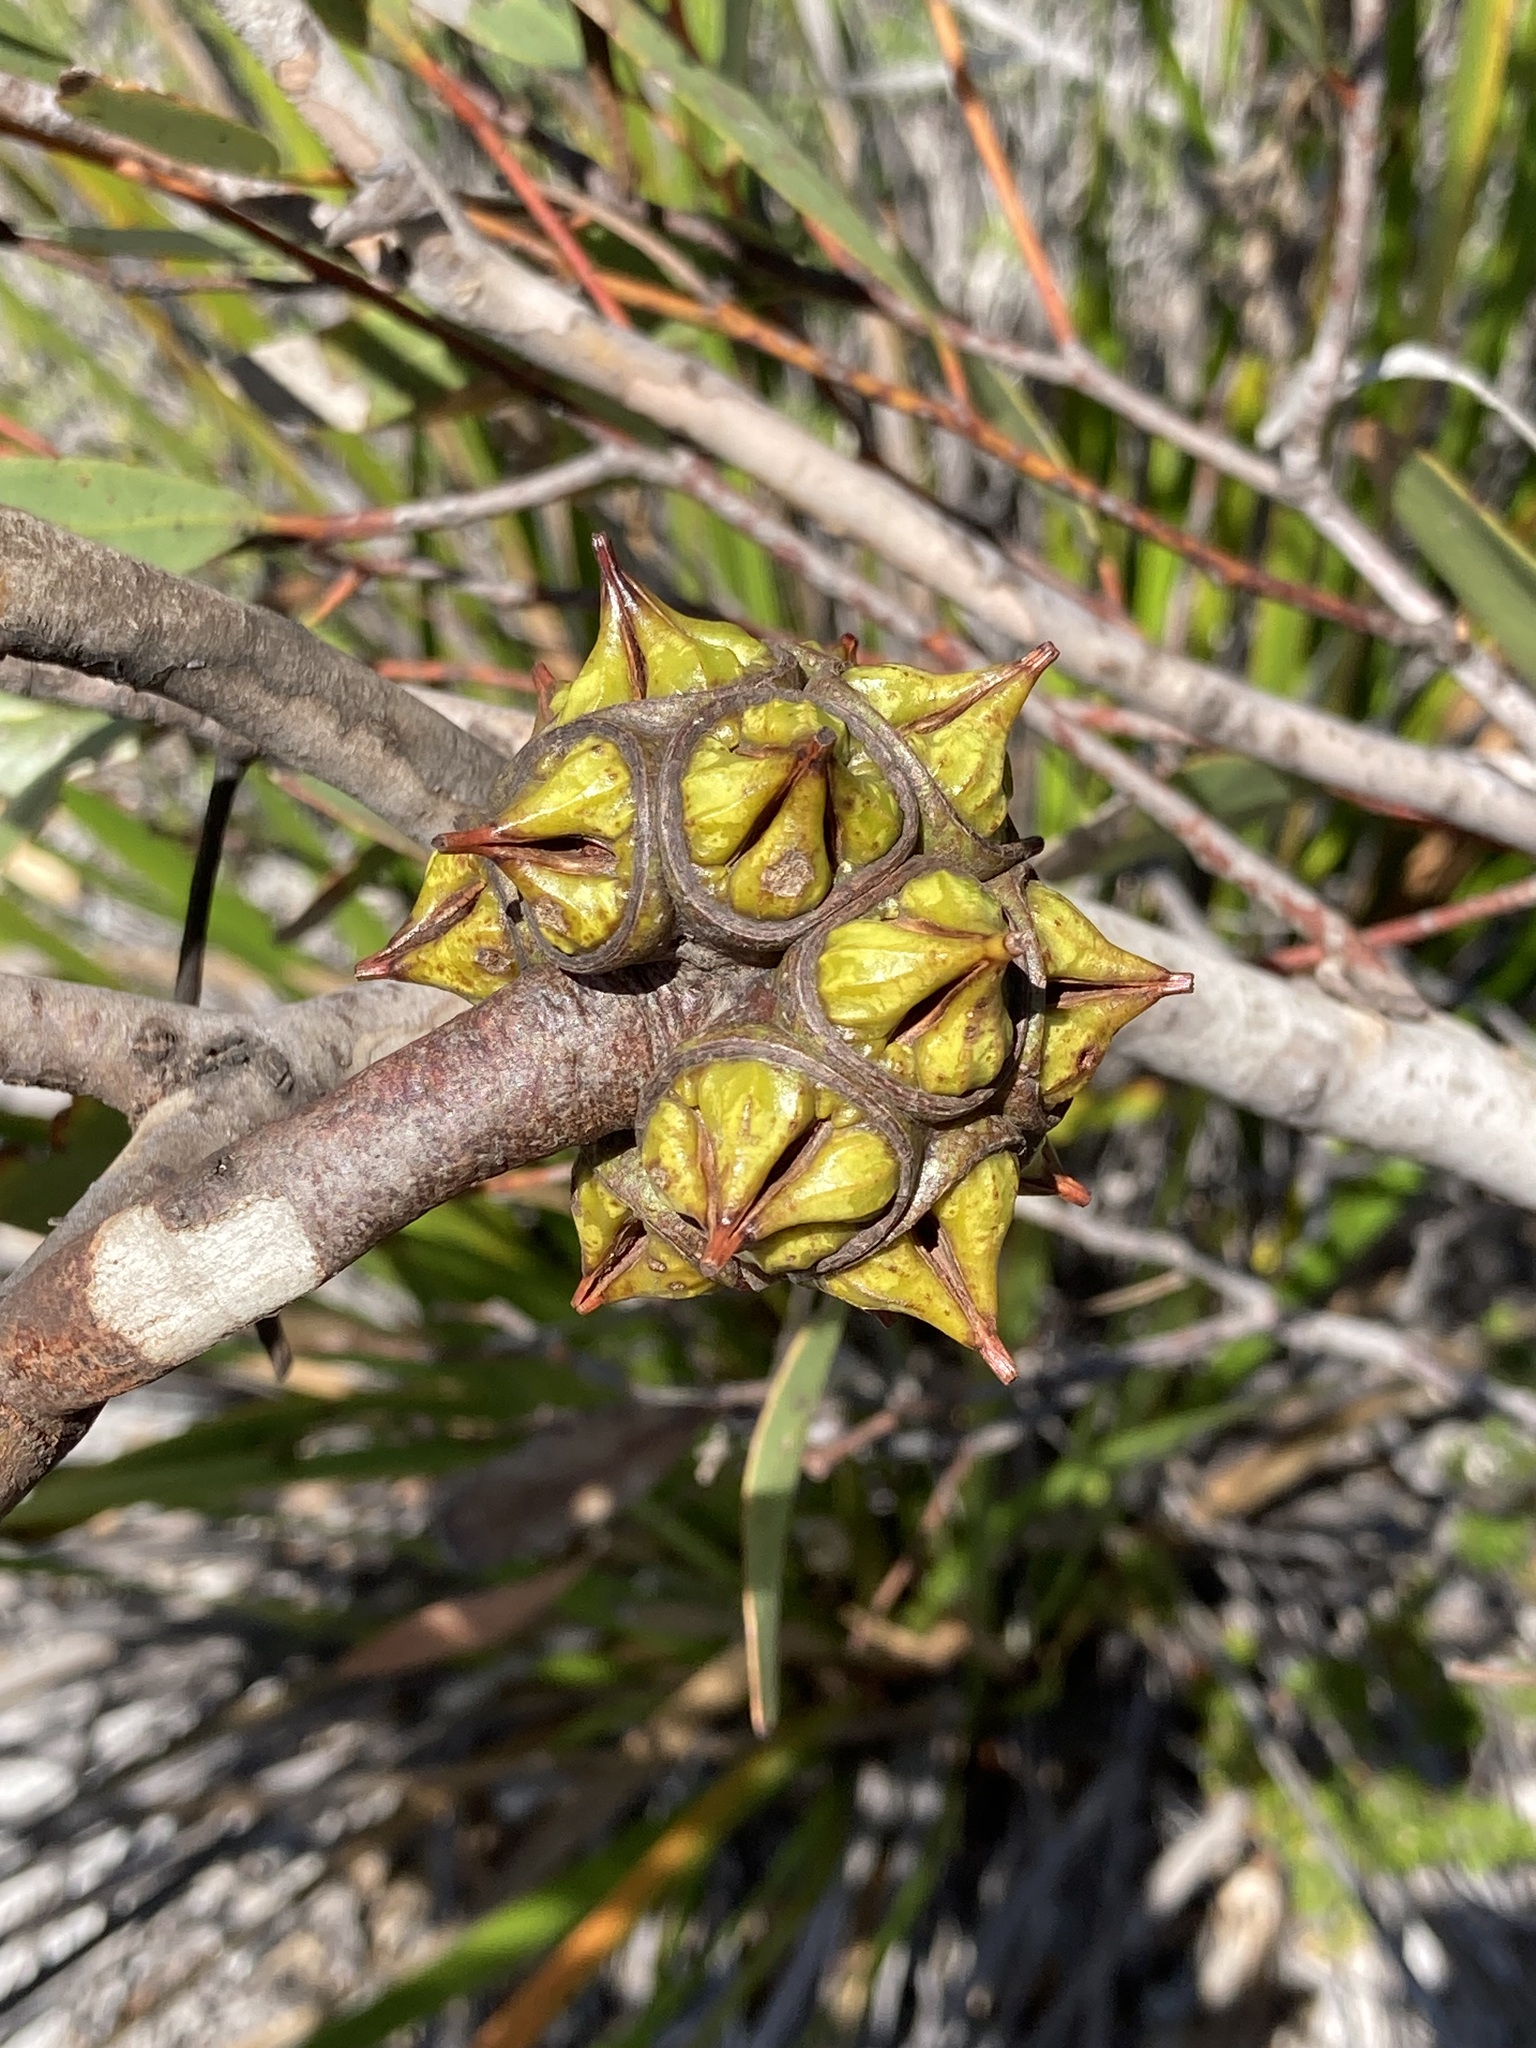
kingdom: Plantae
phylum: Tracheophyta
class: Magnoliopsida
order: Myrtales
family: Myrtaceae
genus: Eucalyptus
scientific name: Eucalyptus lehmannii
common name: Bushy yate
